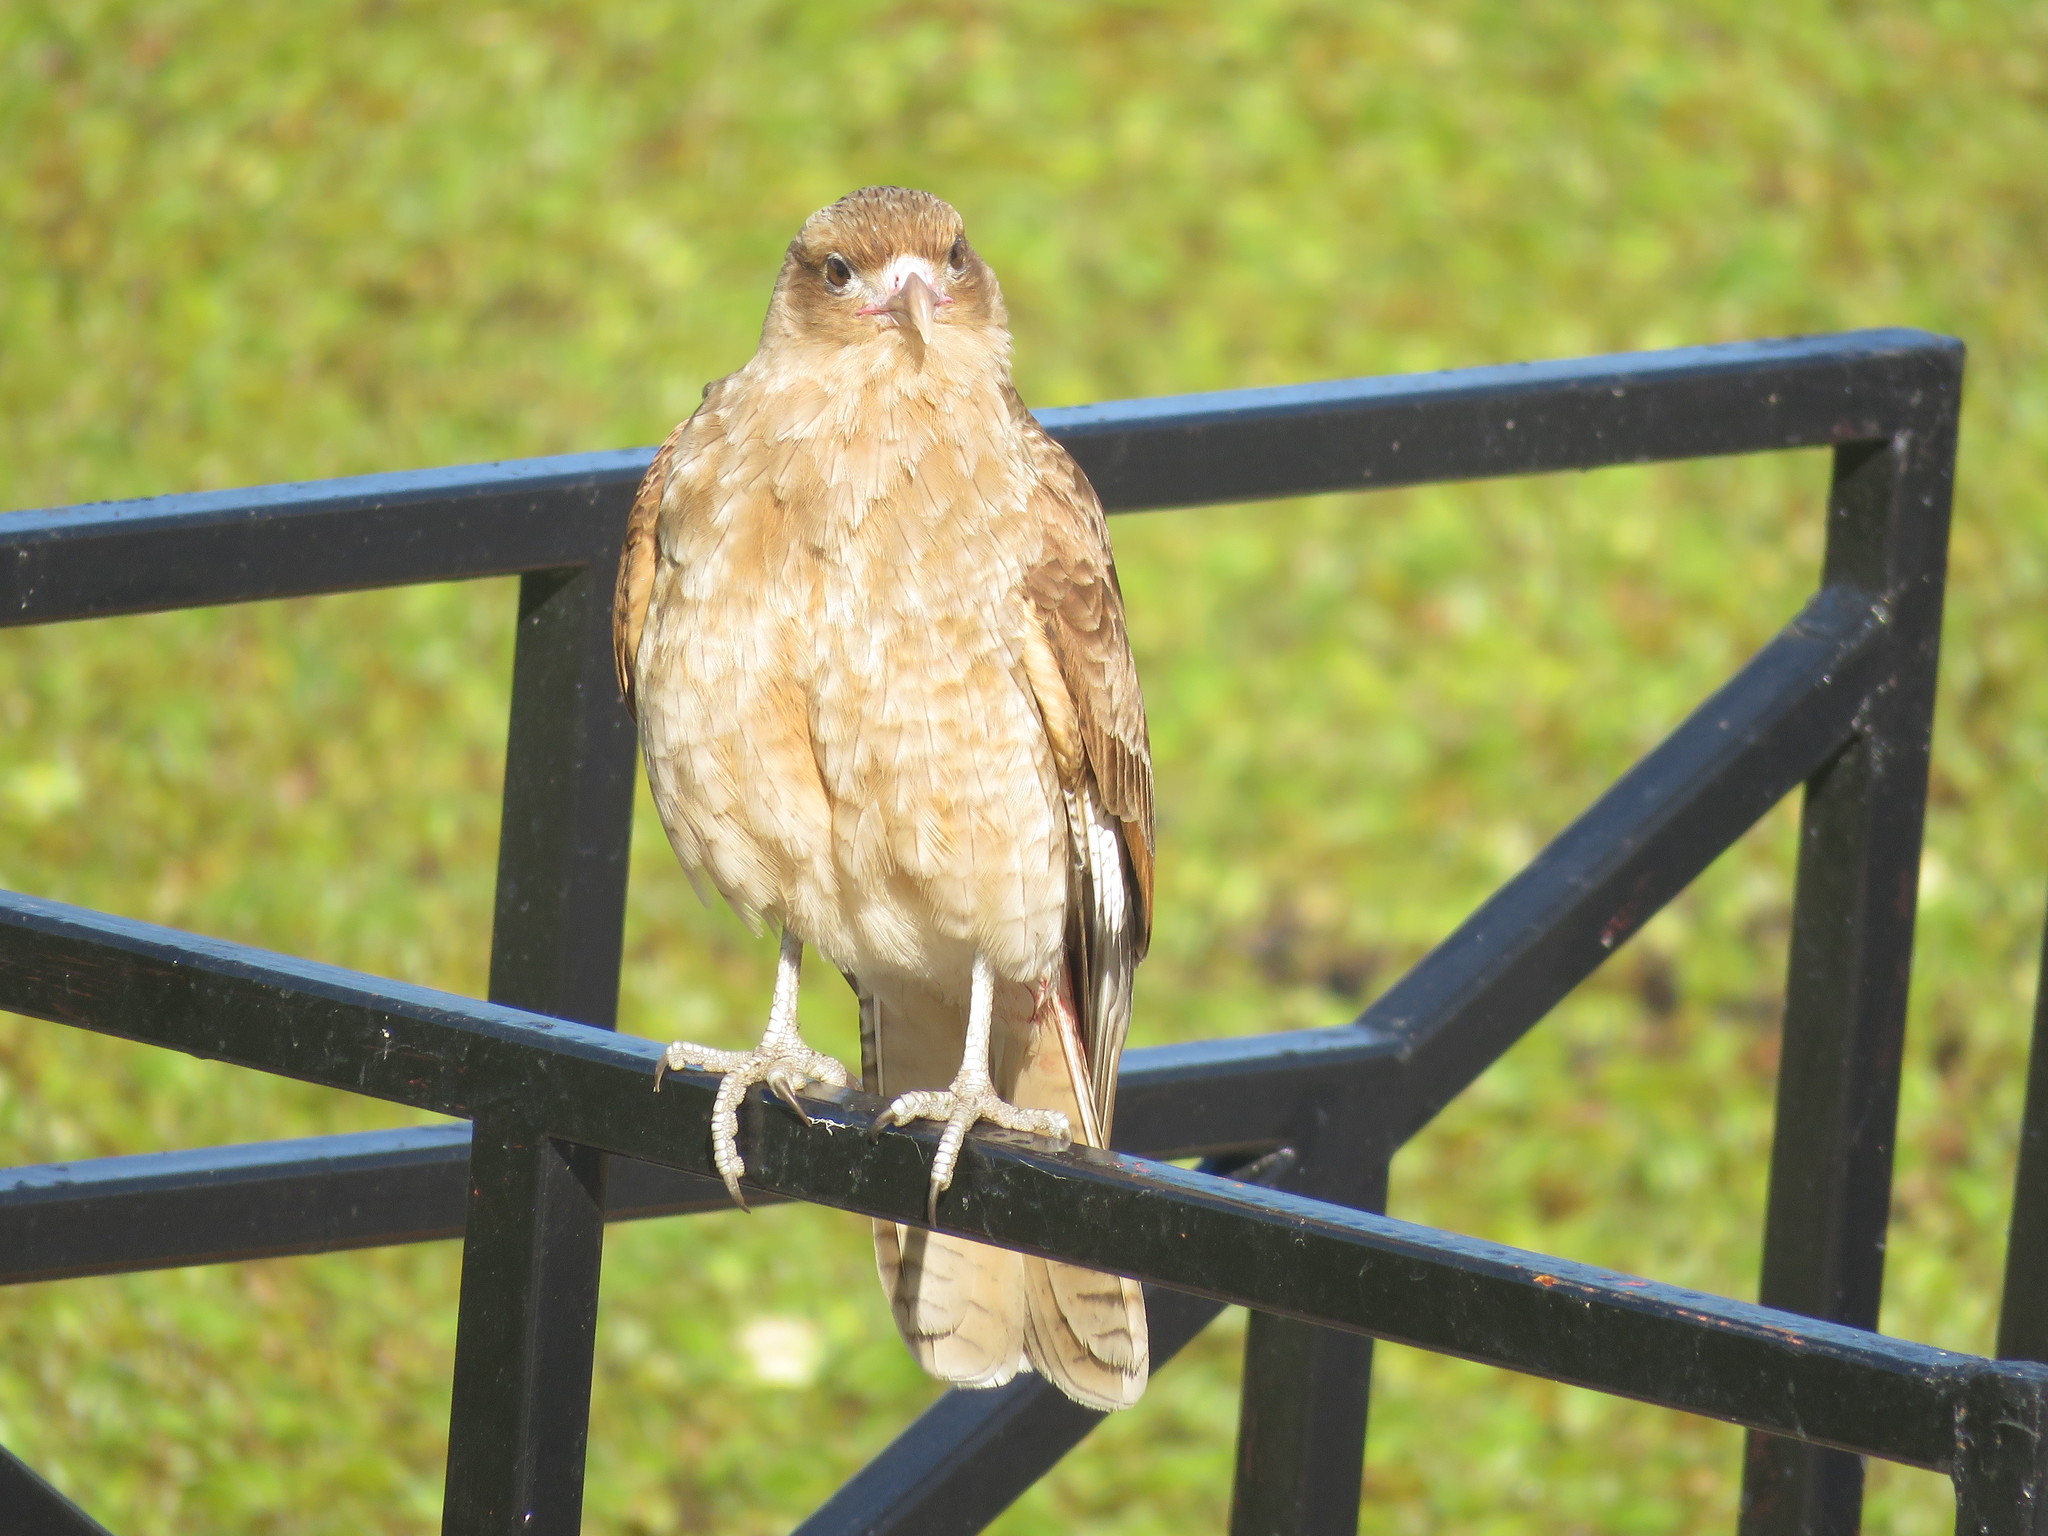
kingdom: Animalia
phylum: Chordata
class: Aves
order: Falconiformes
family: Falconidae
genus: Daptrius
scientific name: Daptrius
